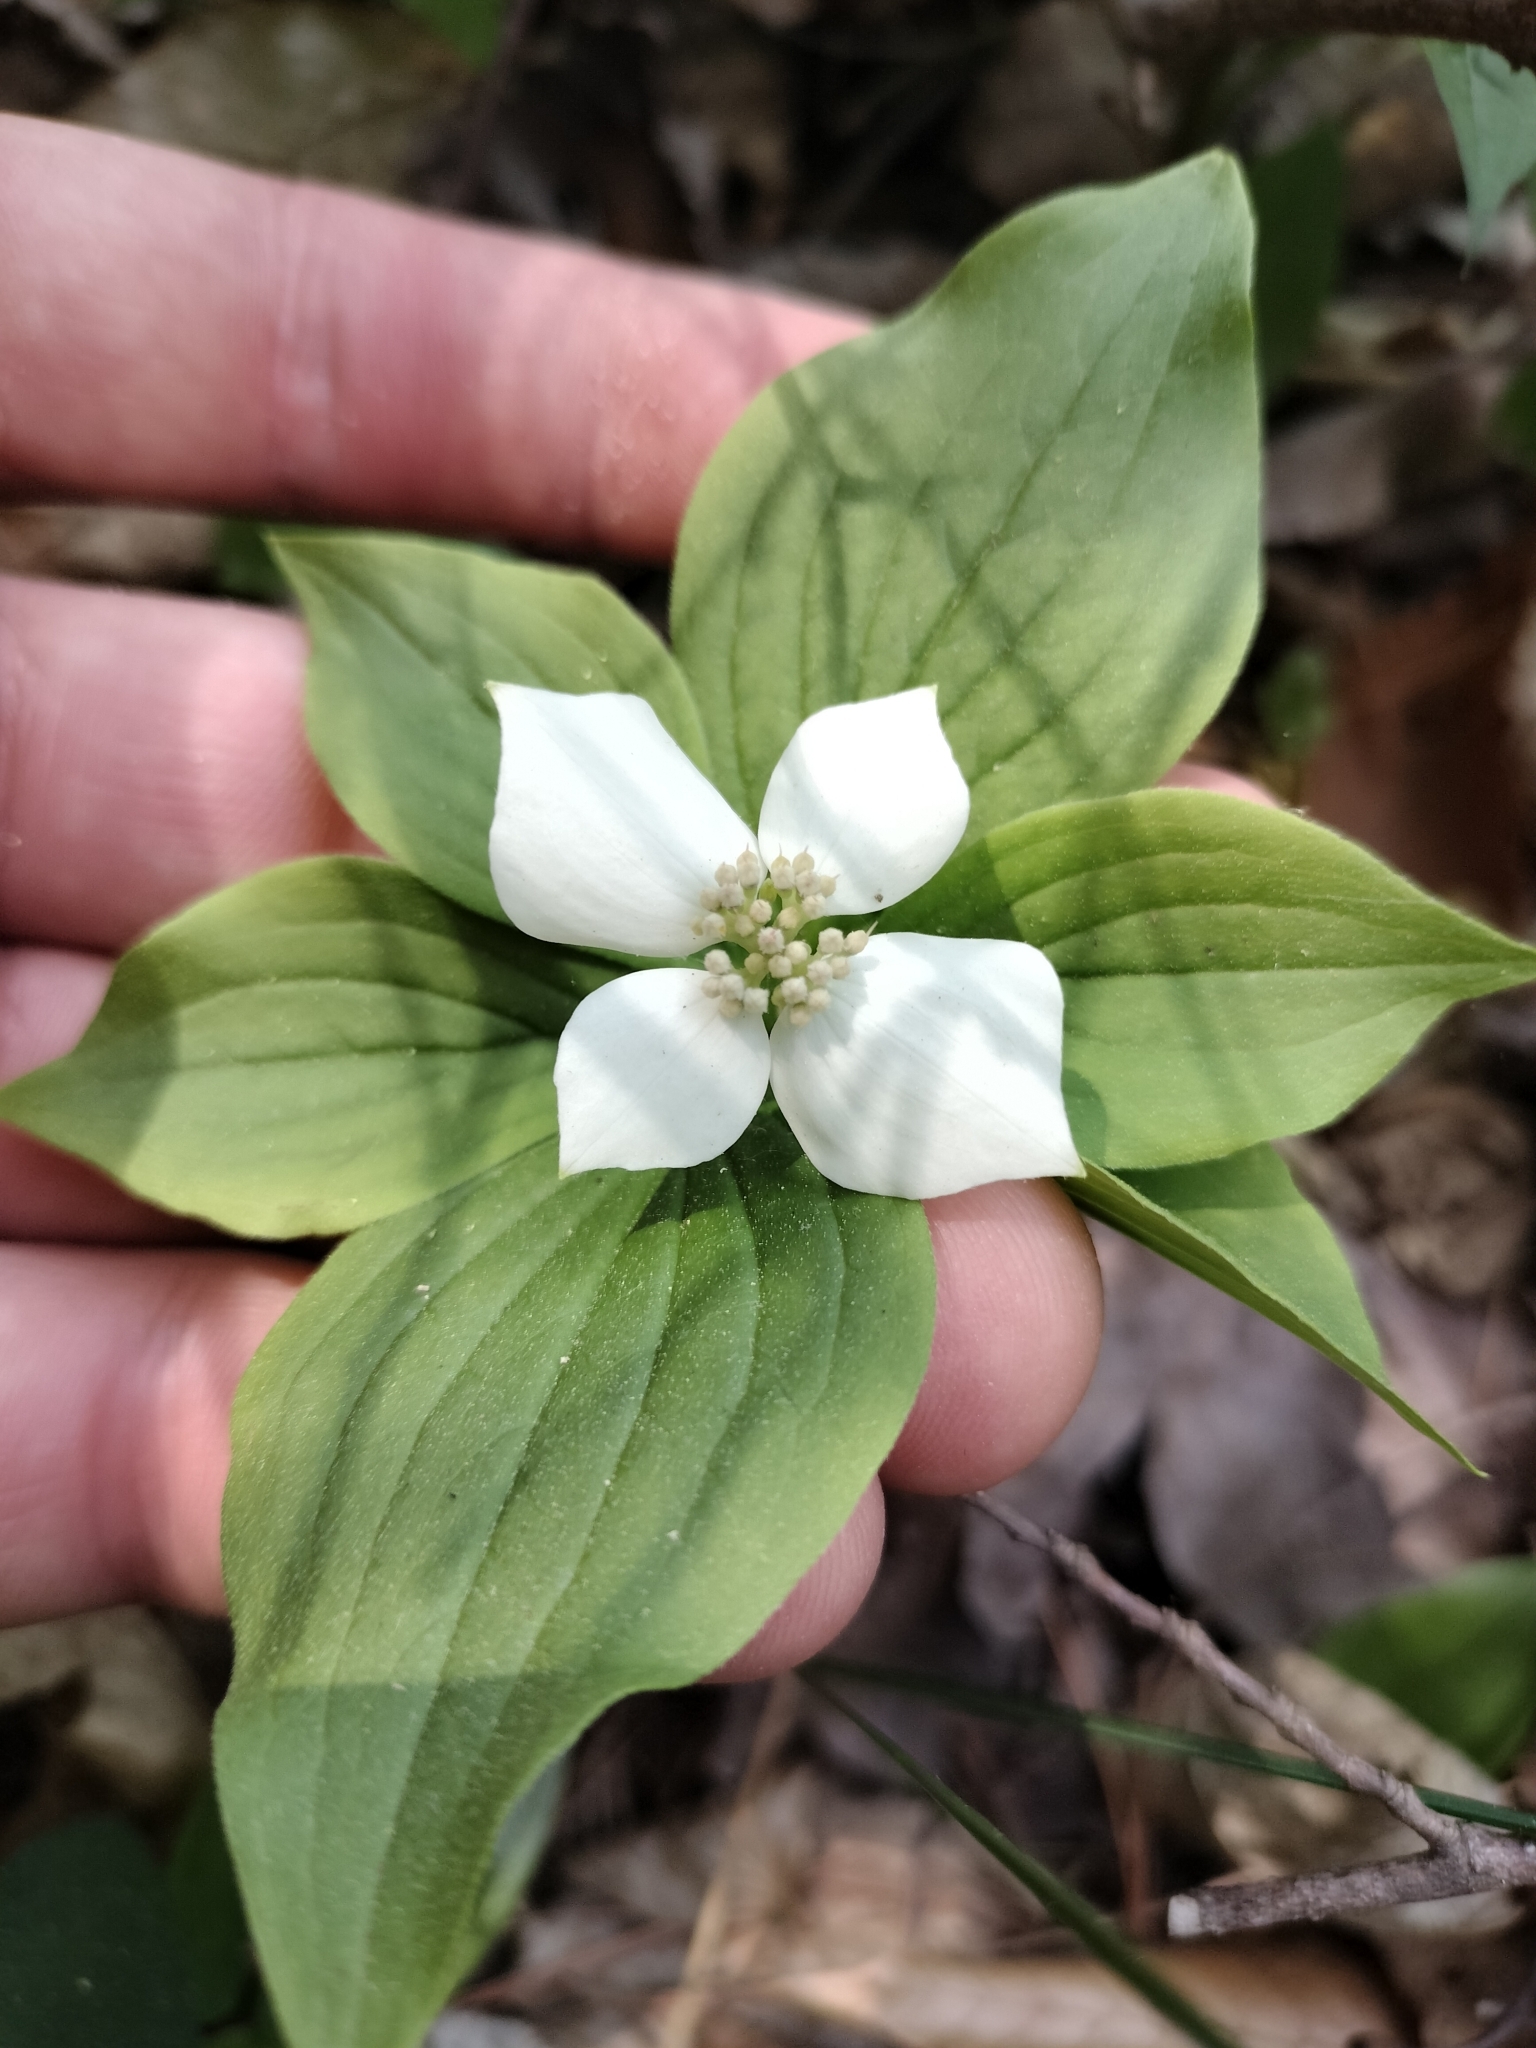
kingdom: Plantae
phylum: Tracheophyta
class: Magnoliopsida
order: Cornales
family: Cornaceae
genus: Cornus
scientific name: Cornus canadensis
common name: Creeping dogwood
